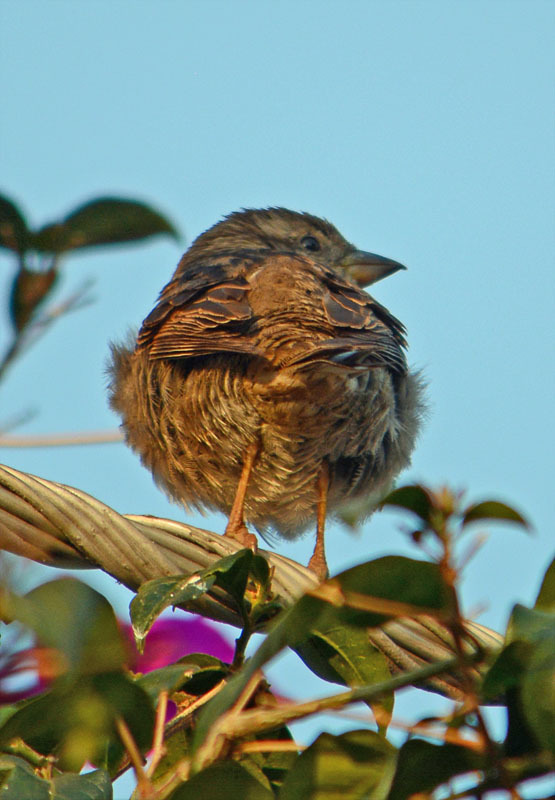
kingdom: Animalia
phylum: Chordata
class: Aves
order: Passeriformes
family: Passeridae
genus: Passer
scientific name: Passer domesticus
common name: House sparrow
